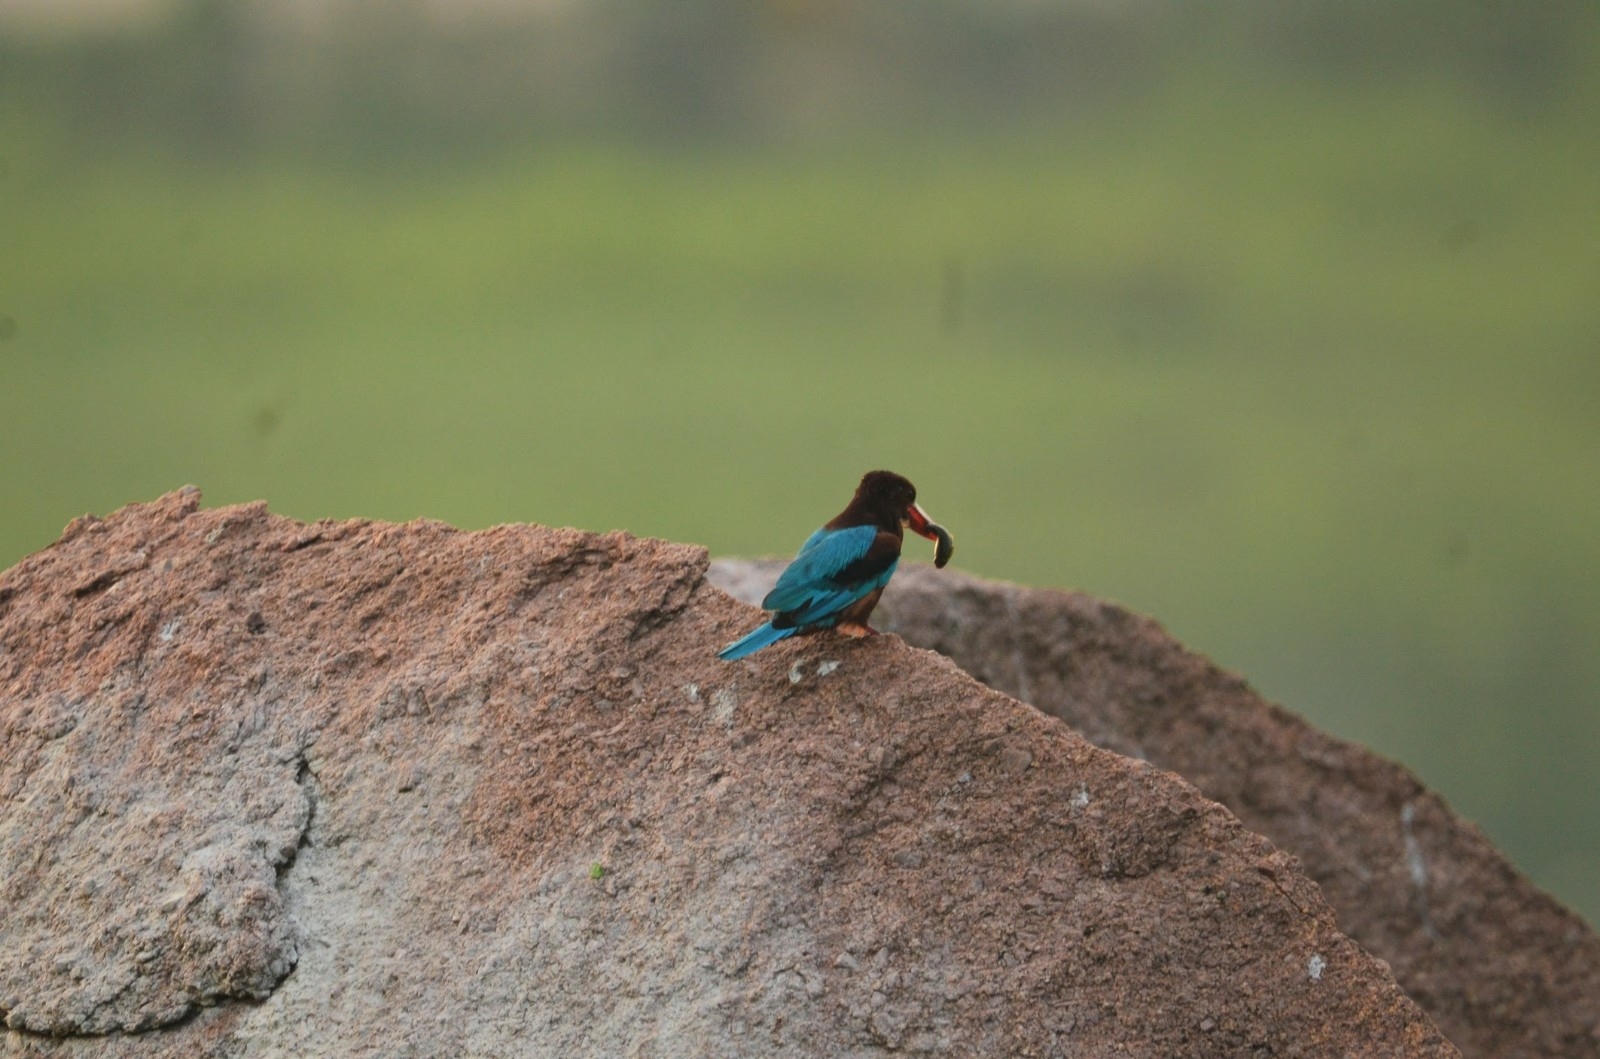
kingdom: Animalia
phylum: Chordata
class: Aves
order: Coraciiformes
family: Alcedinidae
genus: Halcyon
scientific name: Halcyon smyrnensis
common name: White-throated kingfisher
